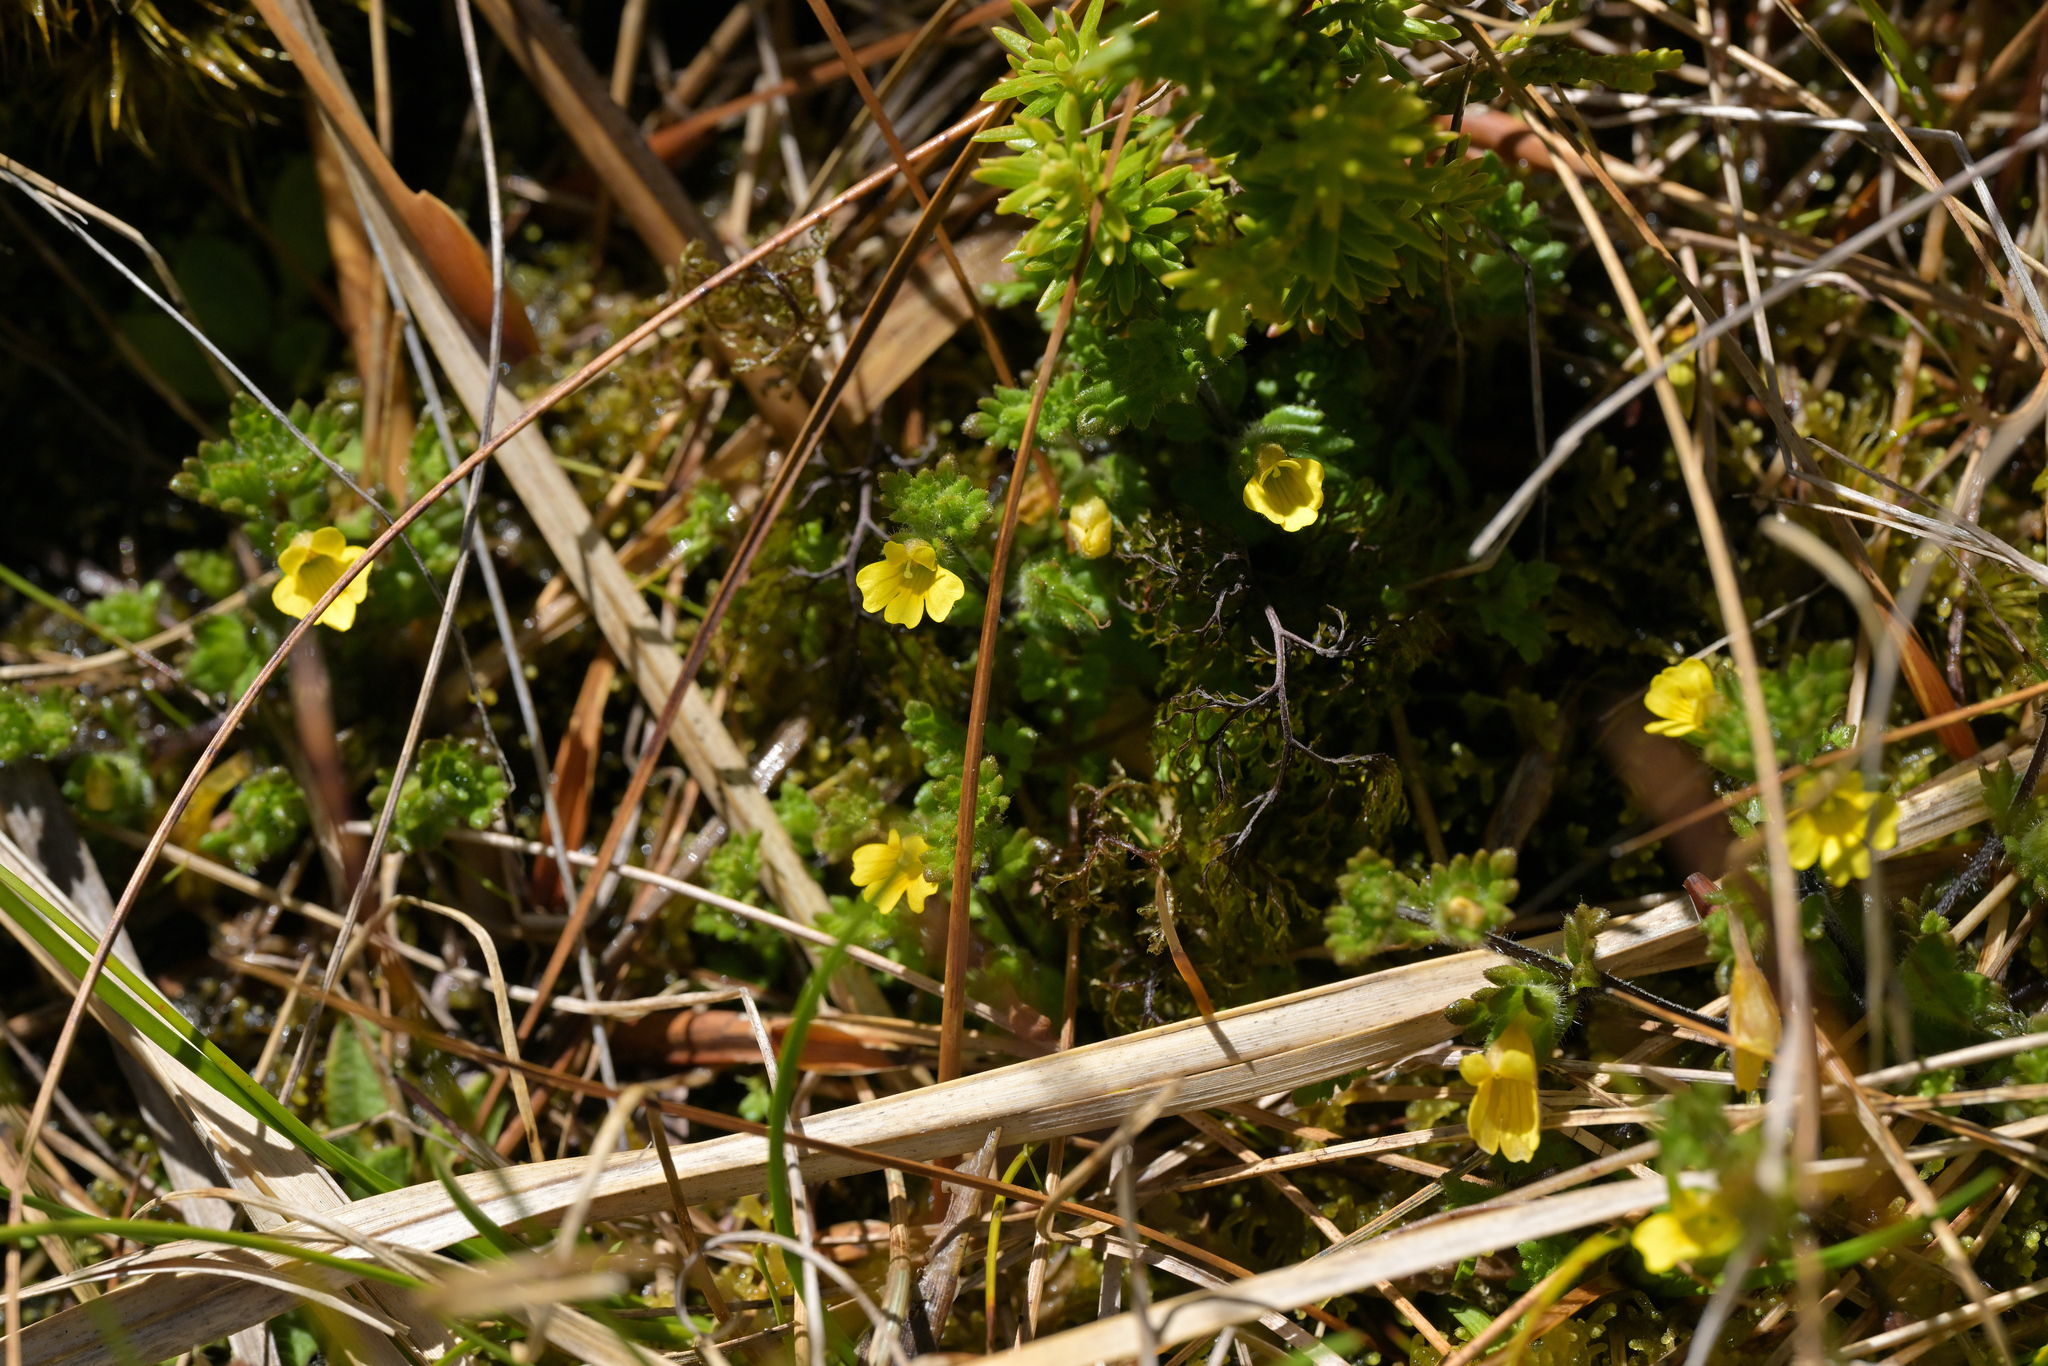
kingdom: Plantae
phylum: Tracheophyta
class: Magnoliopsida
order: Lamiales
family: Orobanchaceae
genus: Euphrasia
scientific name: Euphrasia cockayneana
